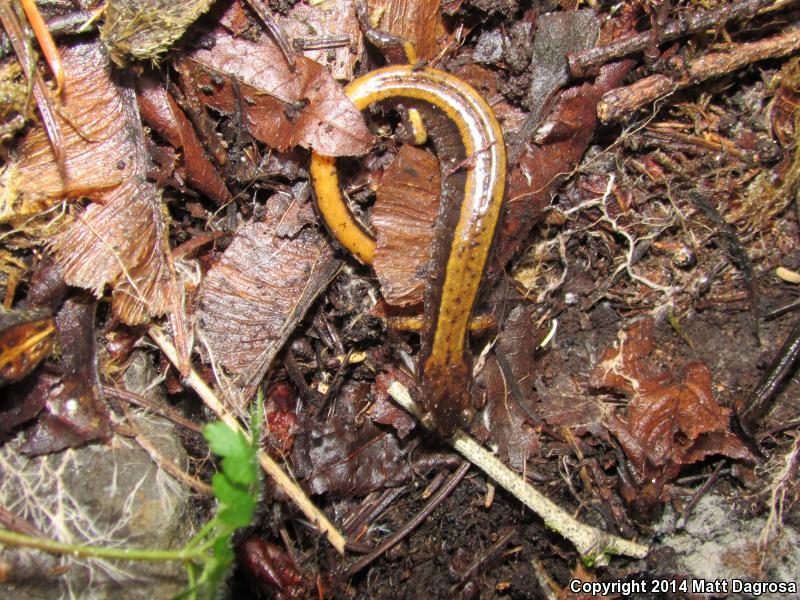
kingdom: Animalia
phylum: Chordata
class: Amphibia
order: Caudata
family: Plethodontidae
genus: Plethodon
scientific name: Plethodon vehiculum
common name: Western red-backed salamander
